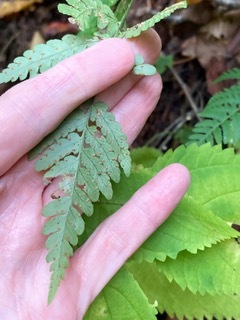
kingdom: Plantae
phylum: Tracheophyta
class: Polypodiopsida
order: Polypodiales
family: Dryopteridaceae
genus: Dryopteris
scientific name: Dryopteris marginalis
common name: Marginal wood fern
